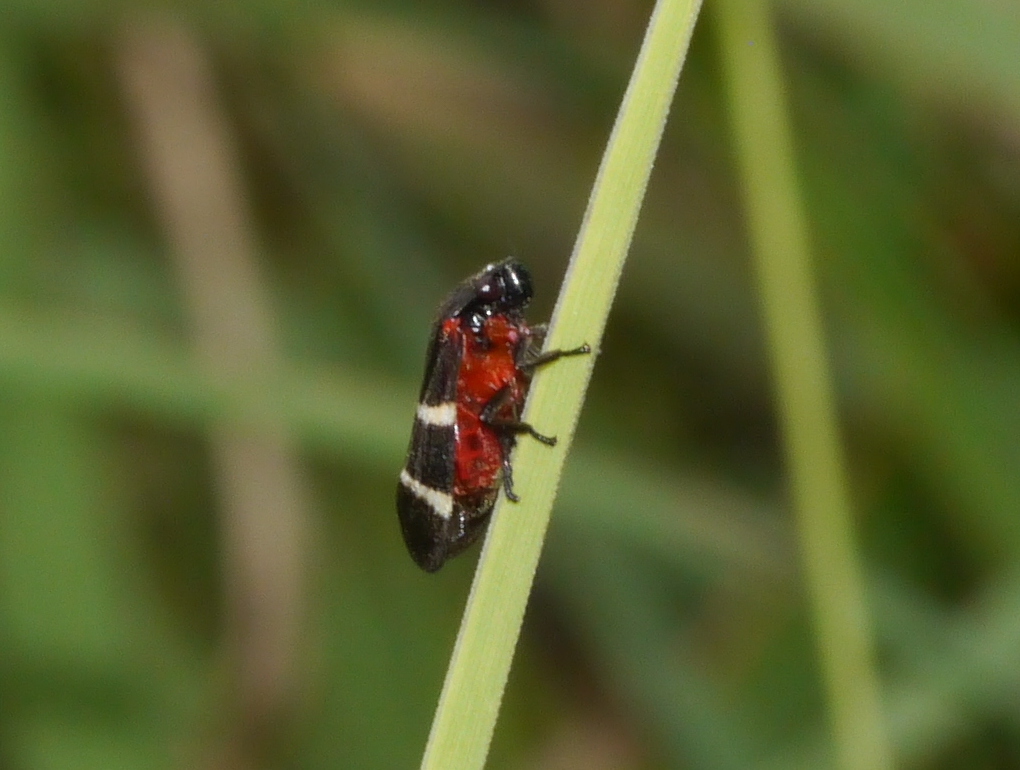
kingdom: Animalia
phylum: Arthropoda
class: Insecta
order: Hemiptera
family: Cercopidae
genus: Aeneolamia
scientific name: Aeneolamia albofasciata
